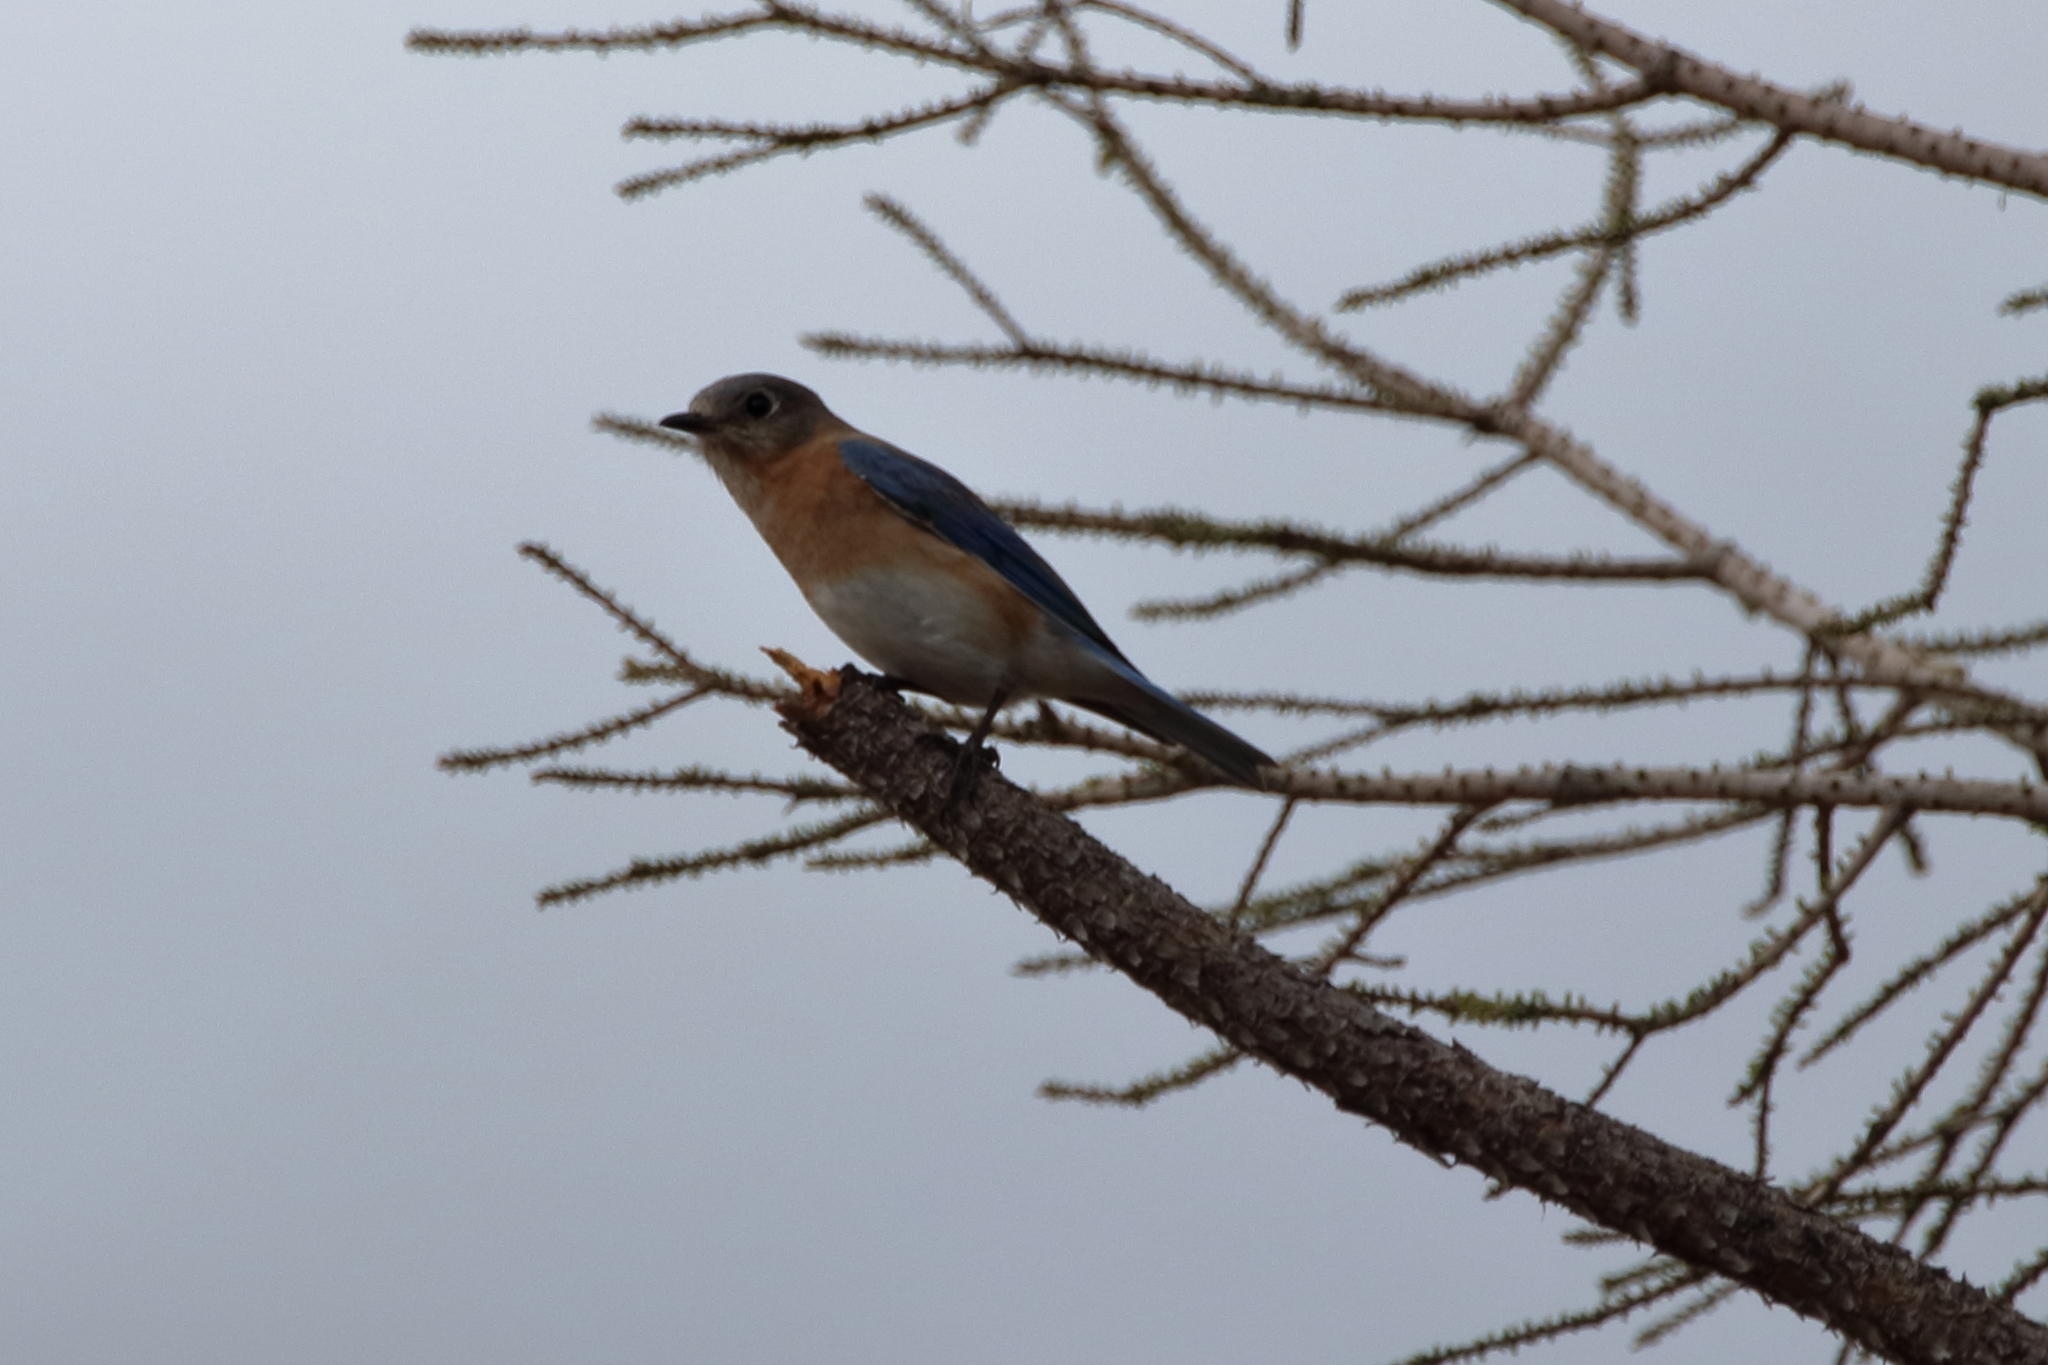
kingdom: Animalia
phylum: Chordata
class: Aves
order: Passeriformes
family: Turdidae
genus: Sialia
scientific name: Sialia sialis
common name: Eastern bluebird
